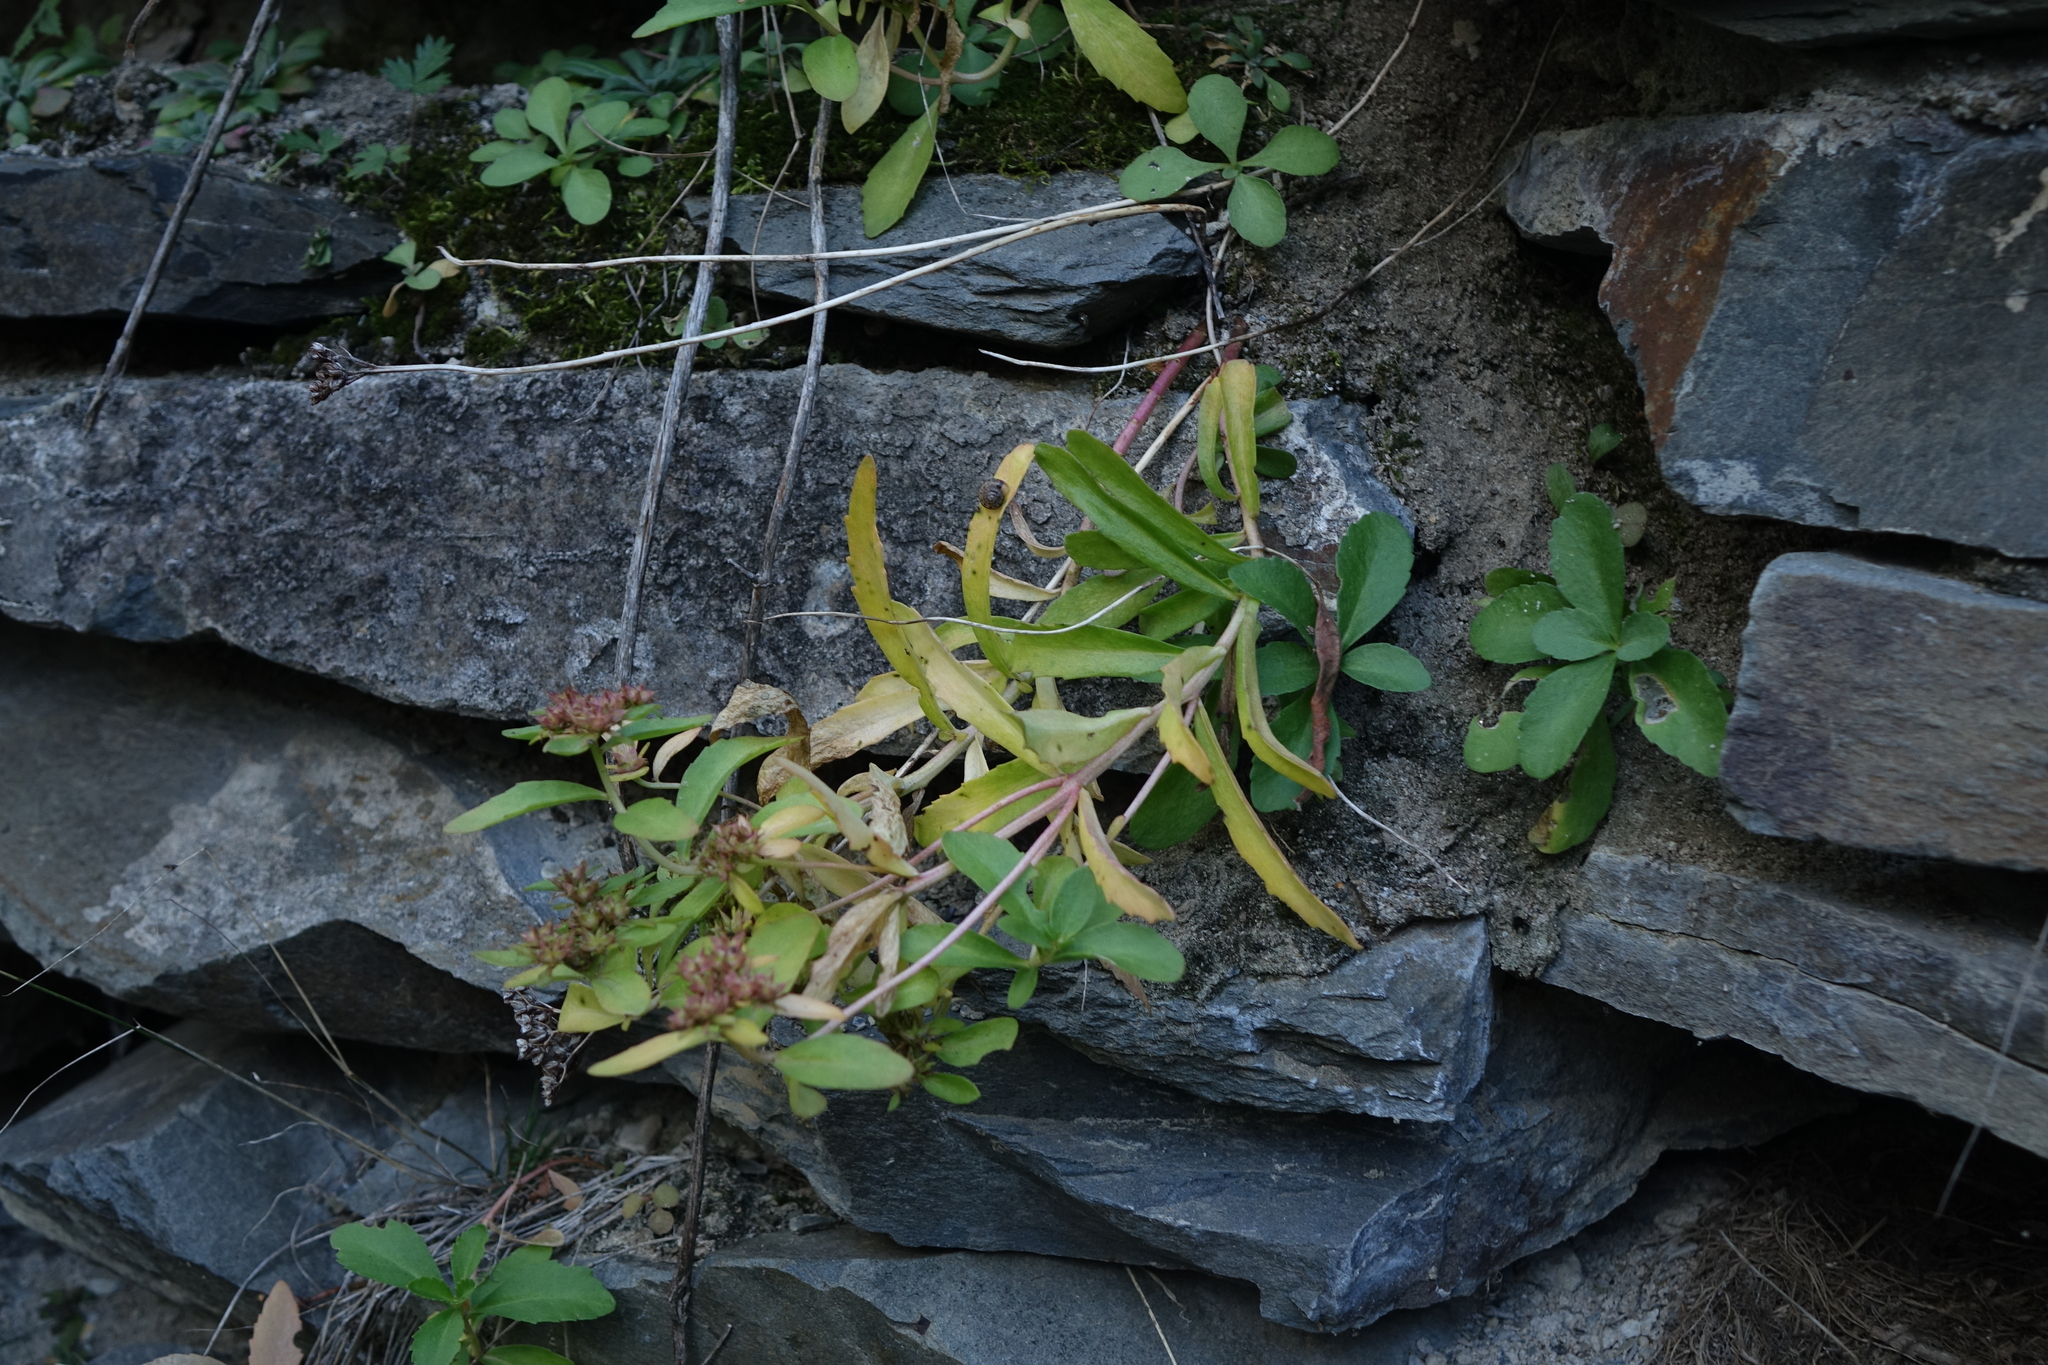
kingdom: Plantae
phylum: Tracheophyta
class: Magnoliopsida
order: Saxifragales
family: Crassulaceae
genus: Phedimus
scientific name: Phedimus aizoon
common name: Orpin aizoon
